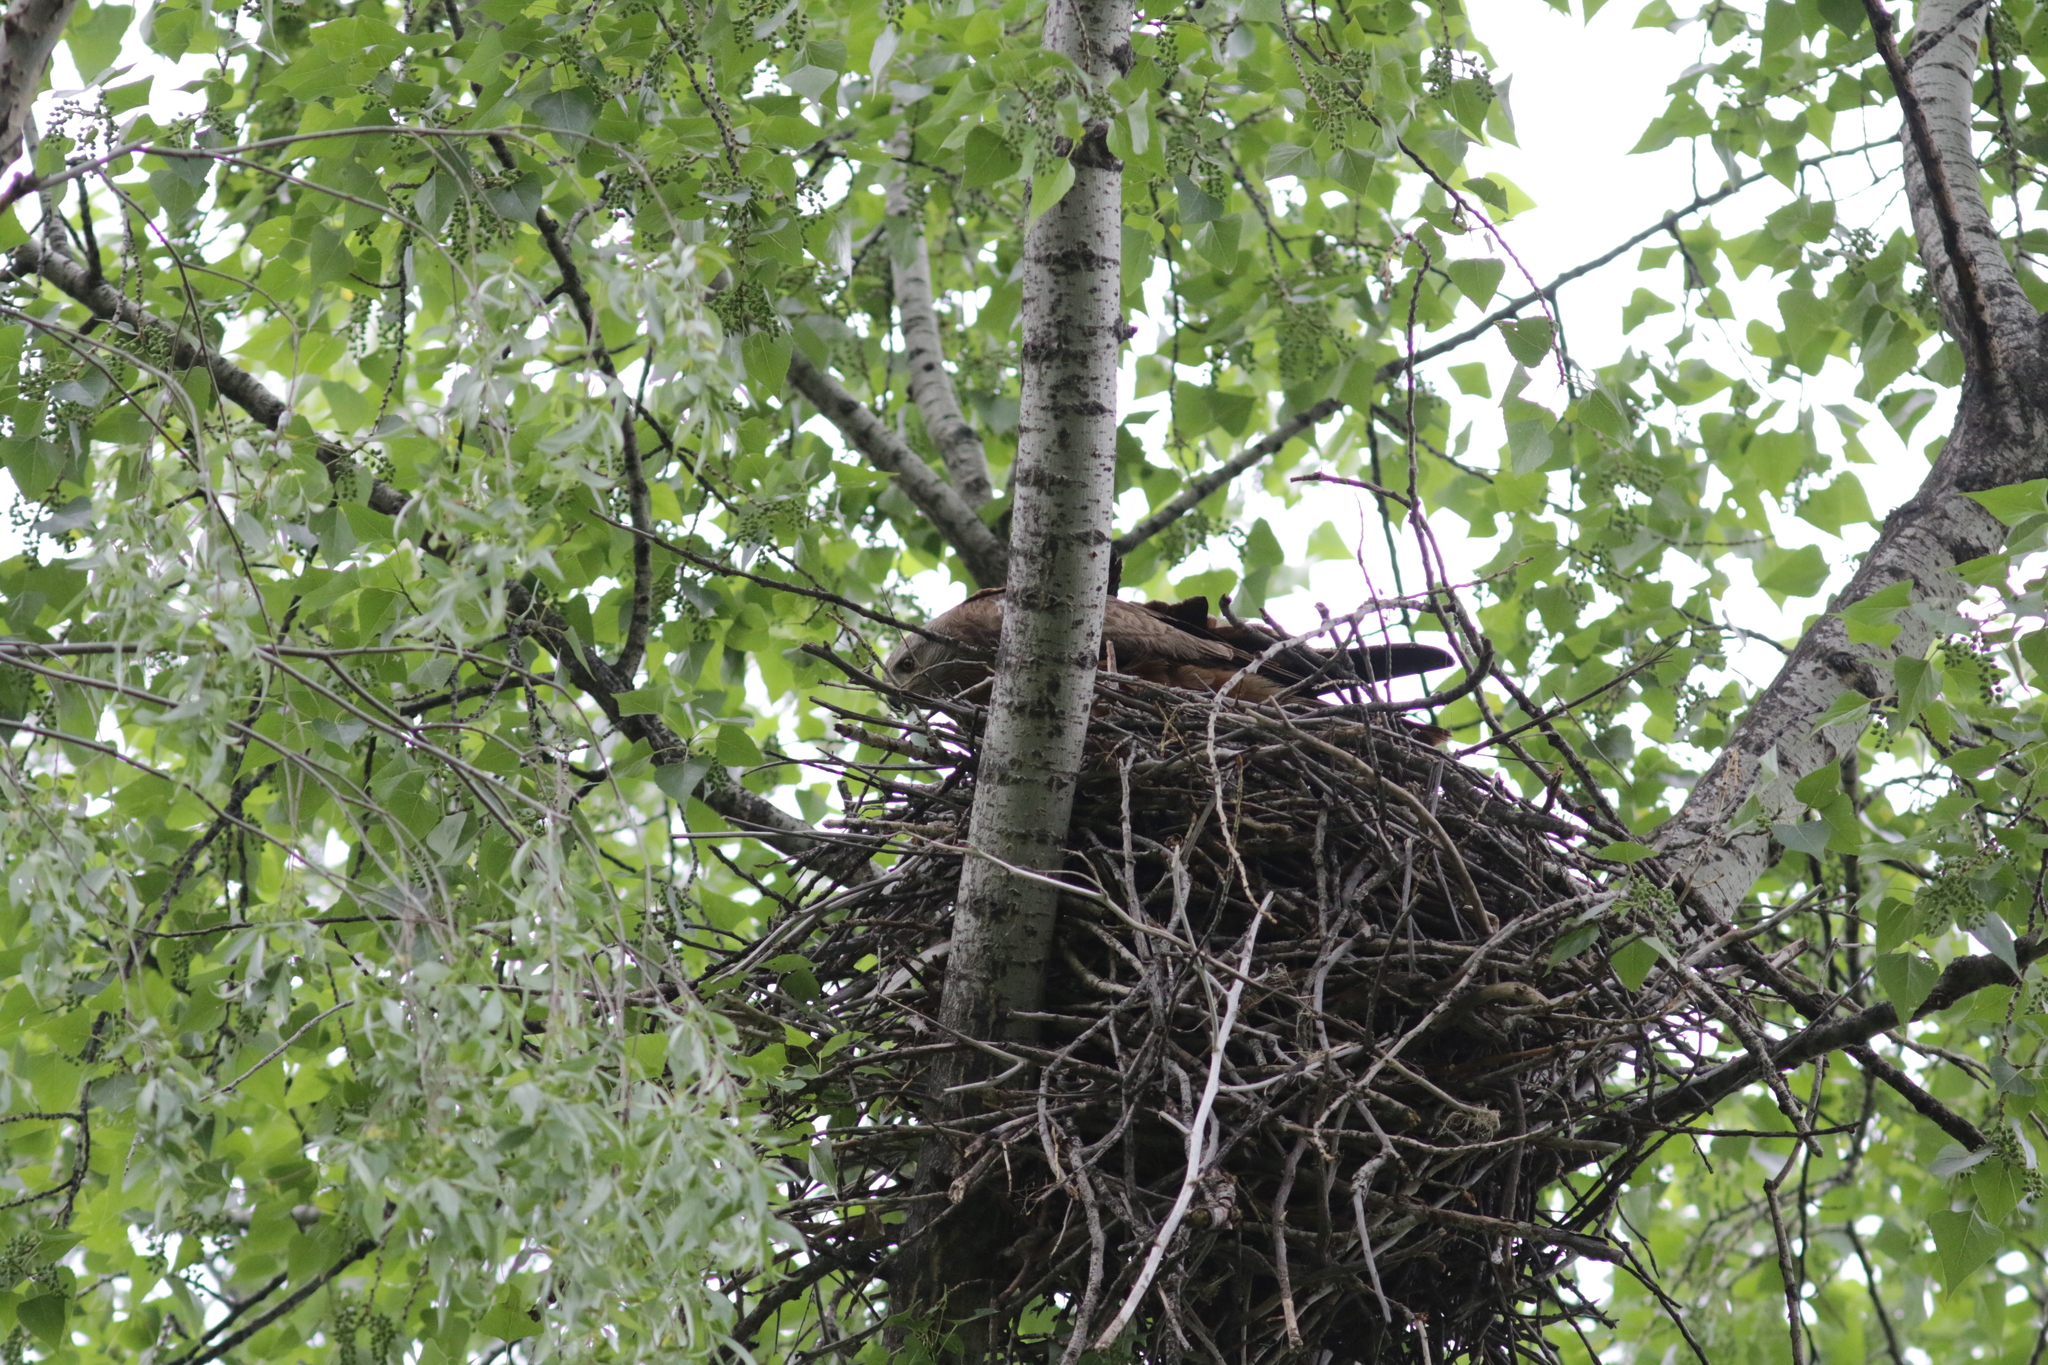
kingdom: Animalia
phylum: Chordata
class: Aves
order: Accipitriformes
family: Accipitridae
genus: Milvus
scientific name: Milvus migrans
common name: Black kite
